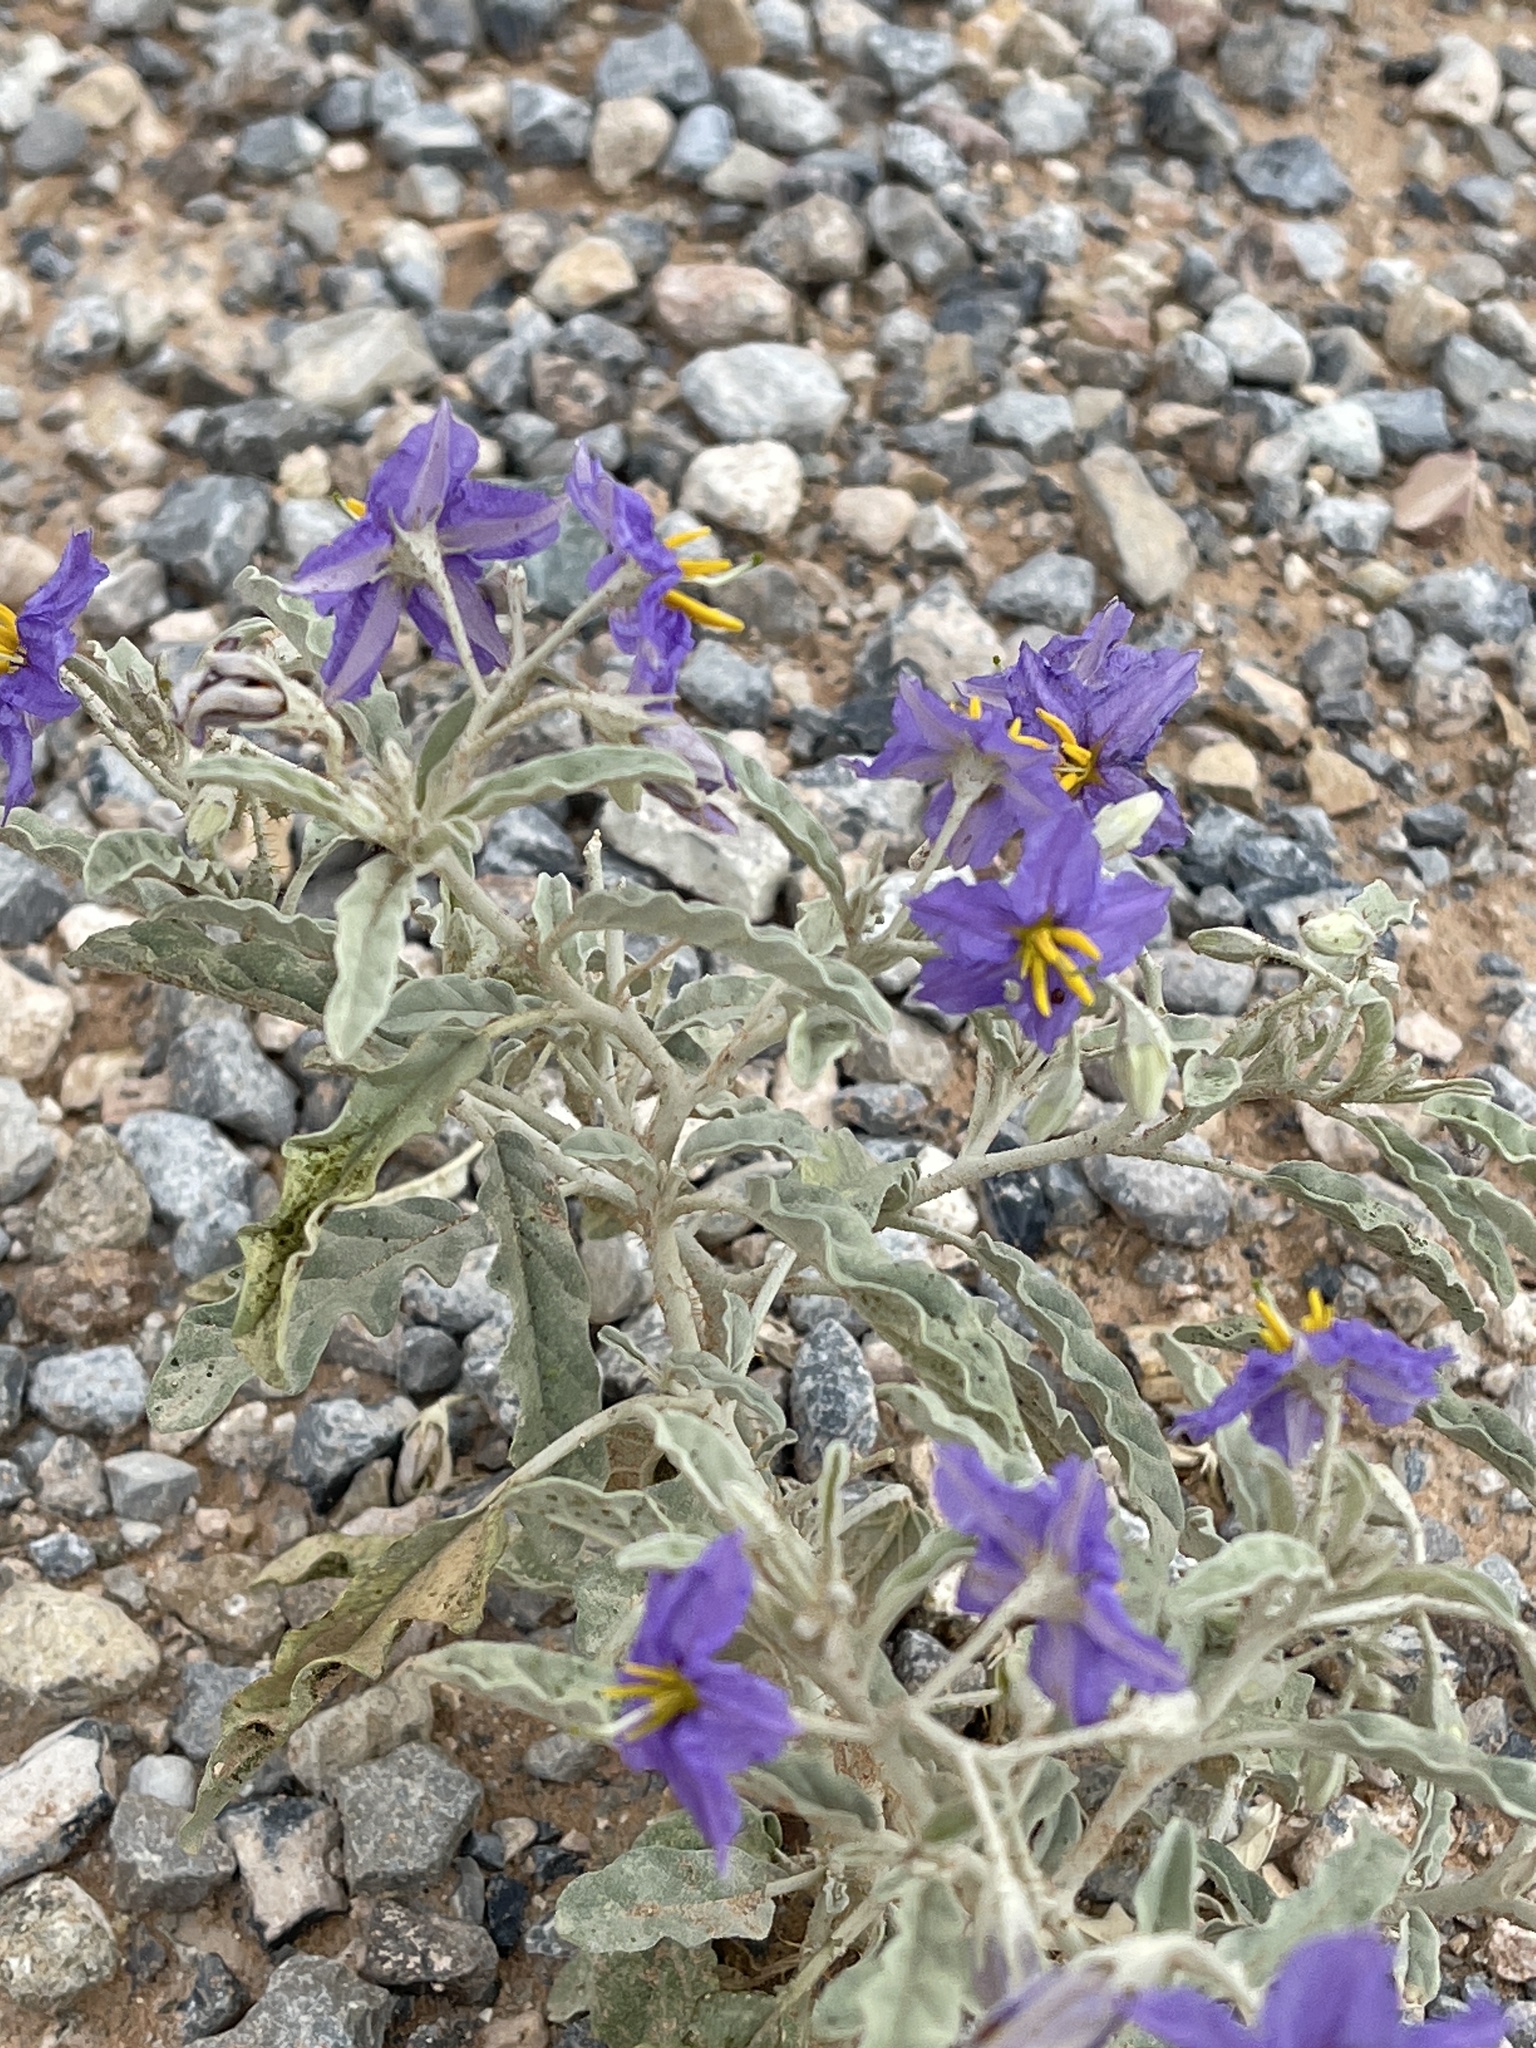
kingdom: Plantae
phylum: Tracheophyta
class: Magnoliopsida
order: Solanales
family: Solanaceae
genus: Solanum
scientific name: Solanum elaeagnifolium
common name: Silverleaf nightshade
